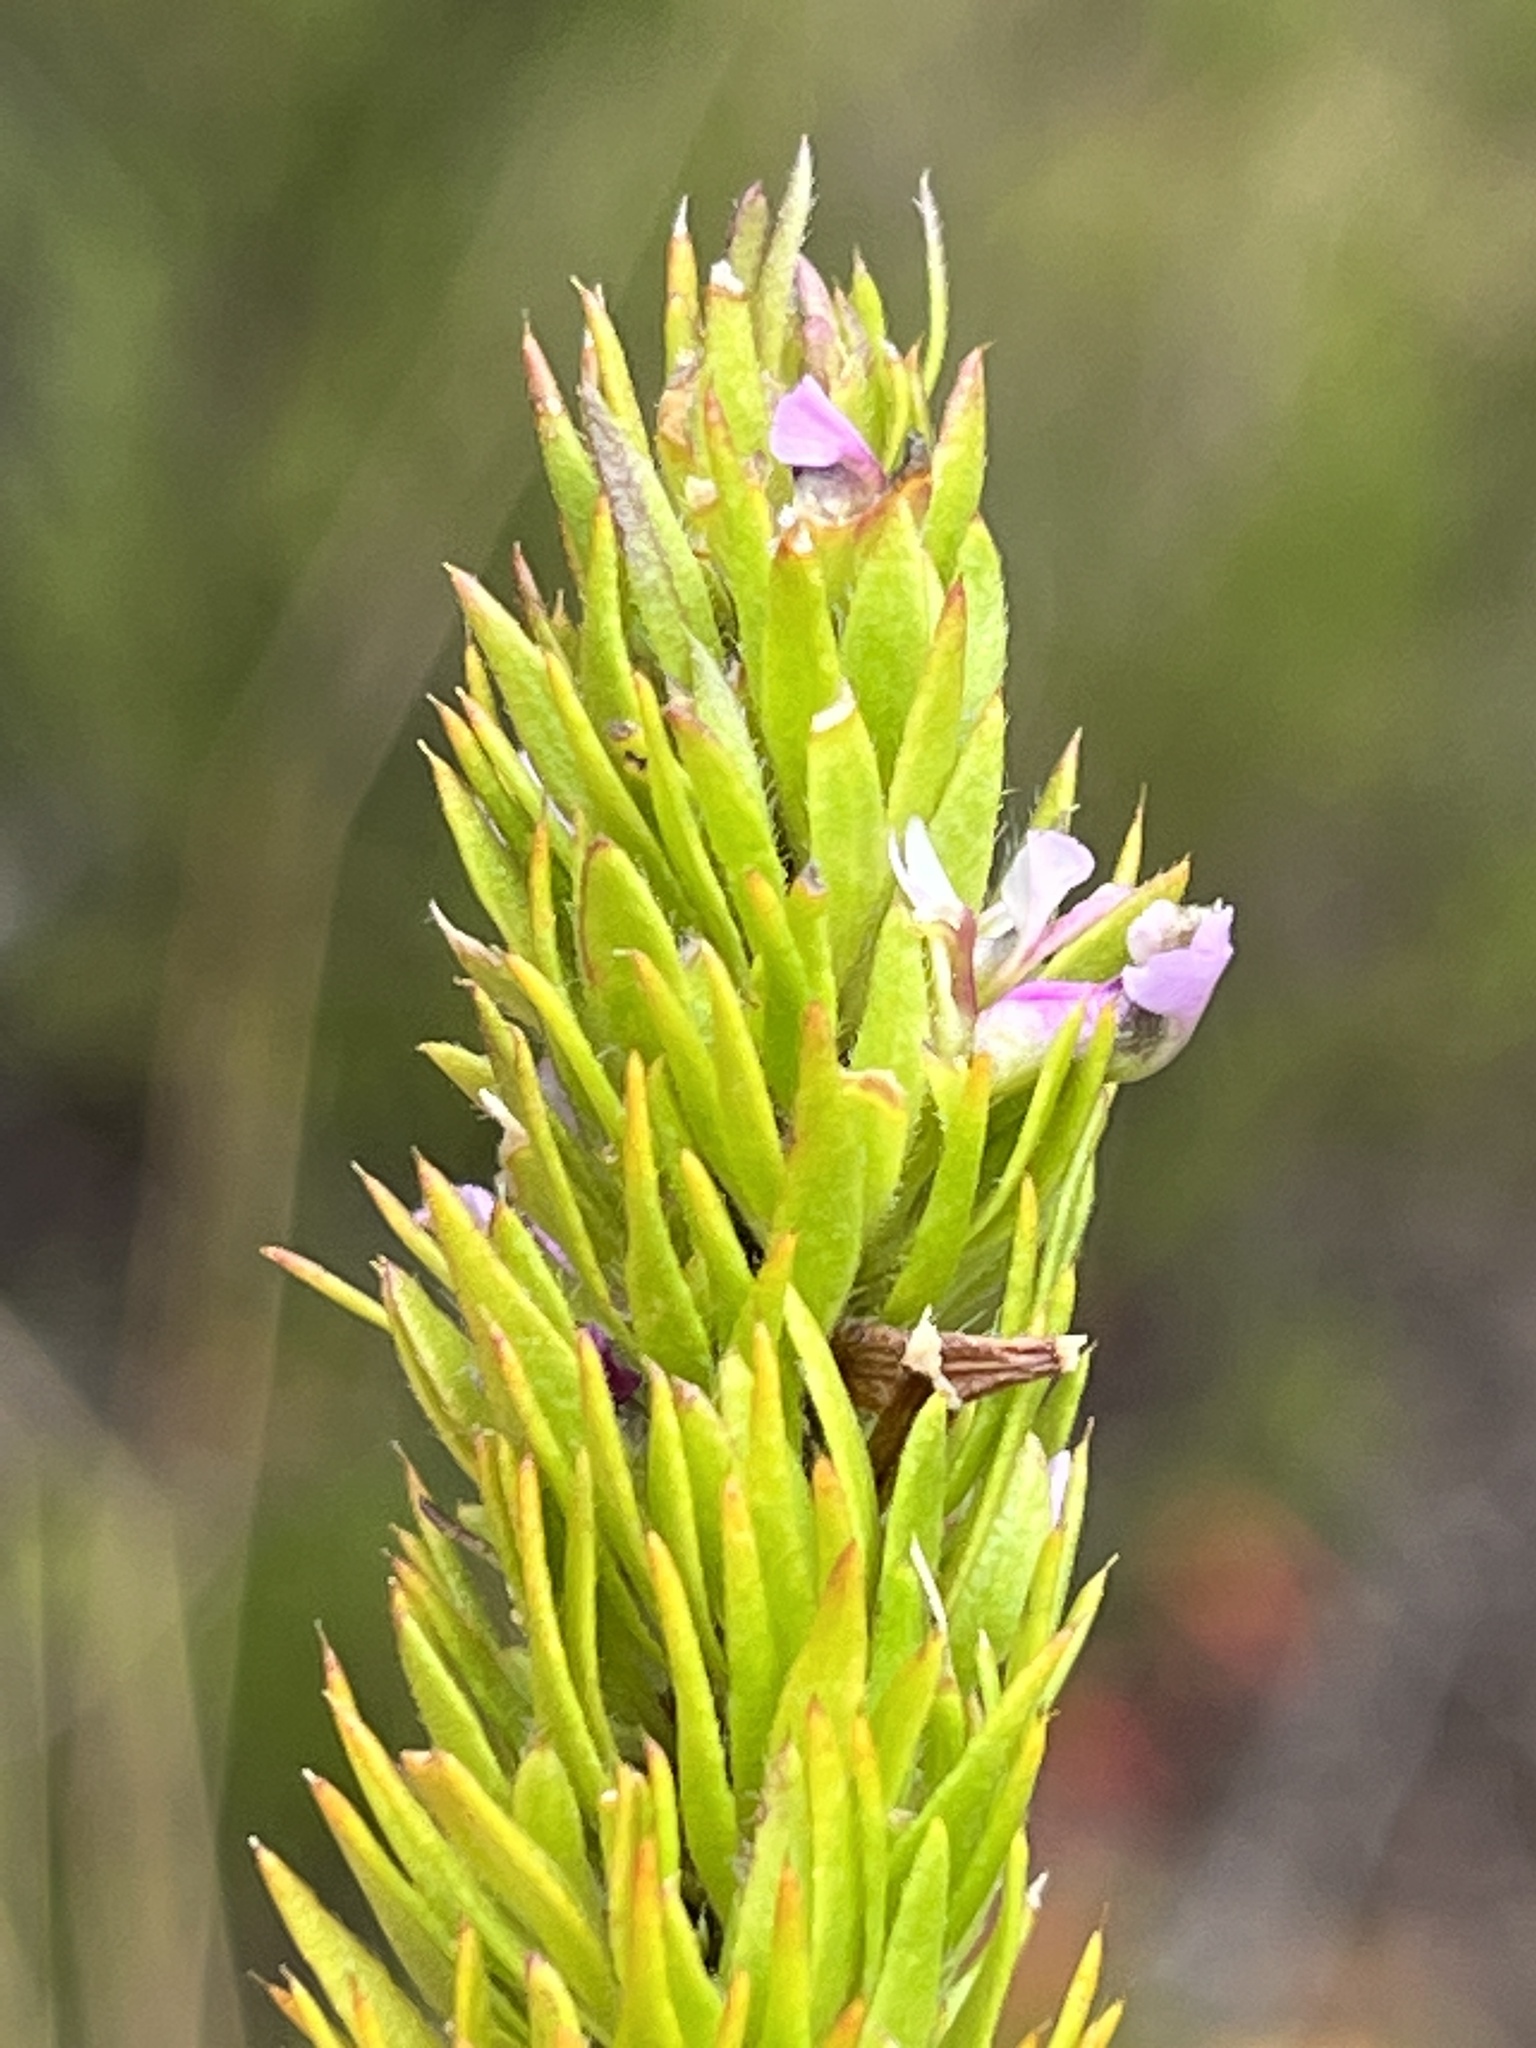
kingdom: Plantae
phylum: Tracheophyta
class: Magnoliopsida
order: Fabales
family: Polygalaceae
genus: Muraltia
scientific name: Muraltia alopecuroides
